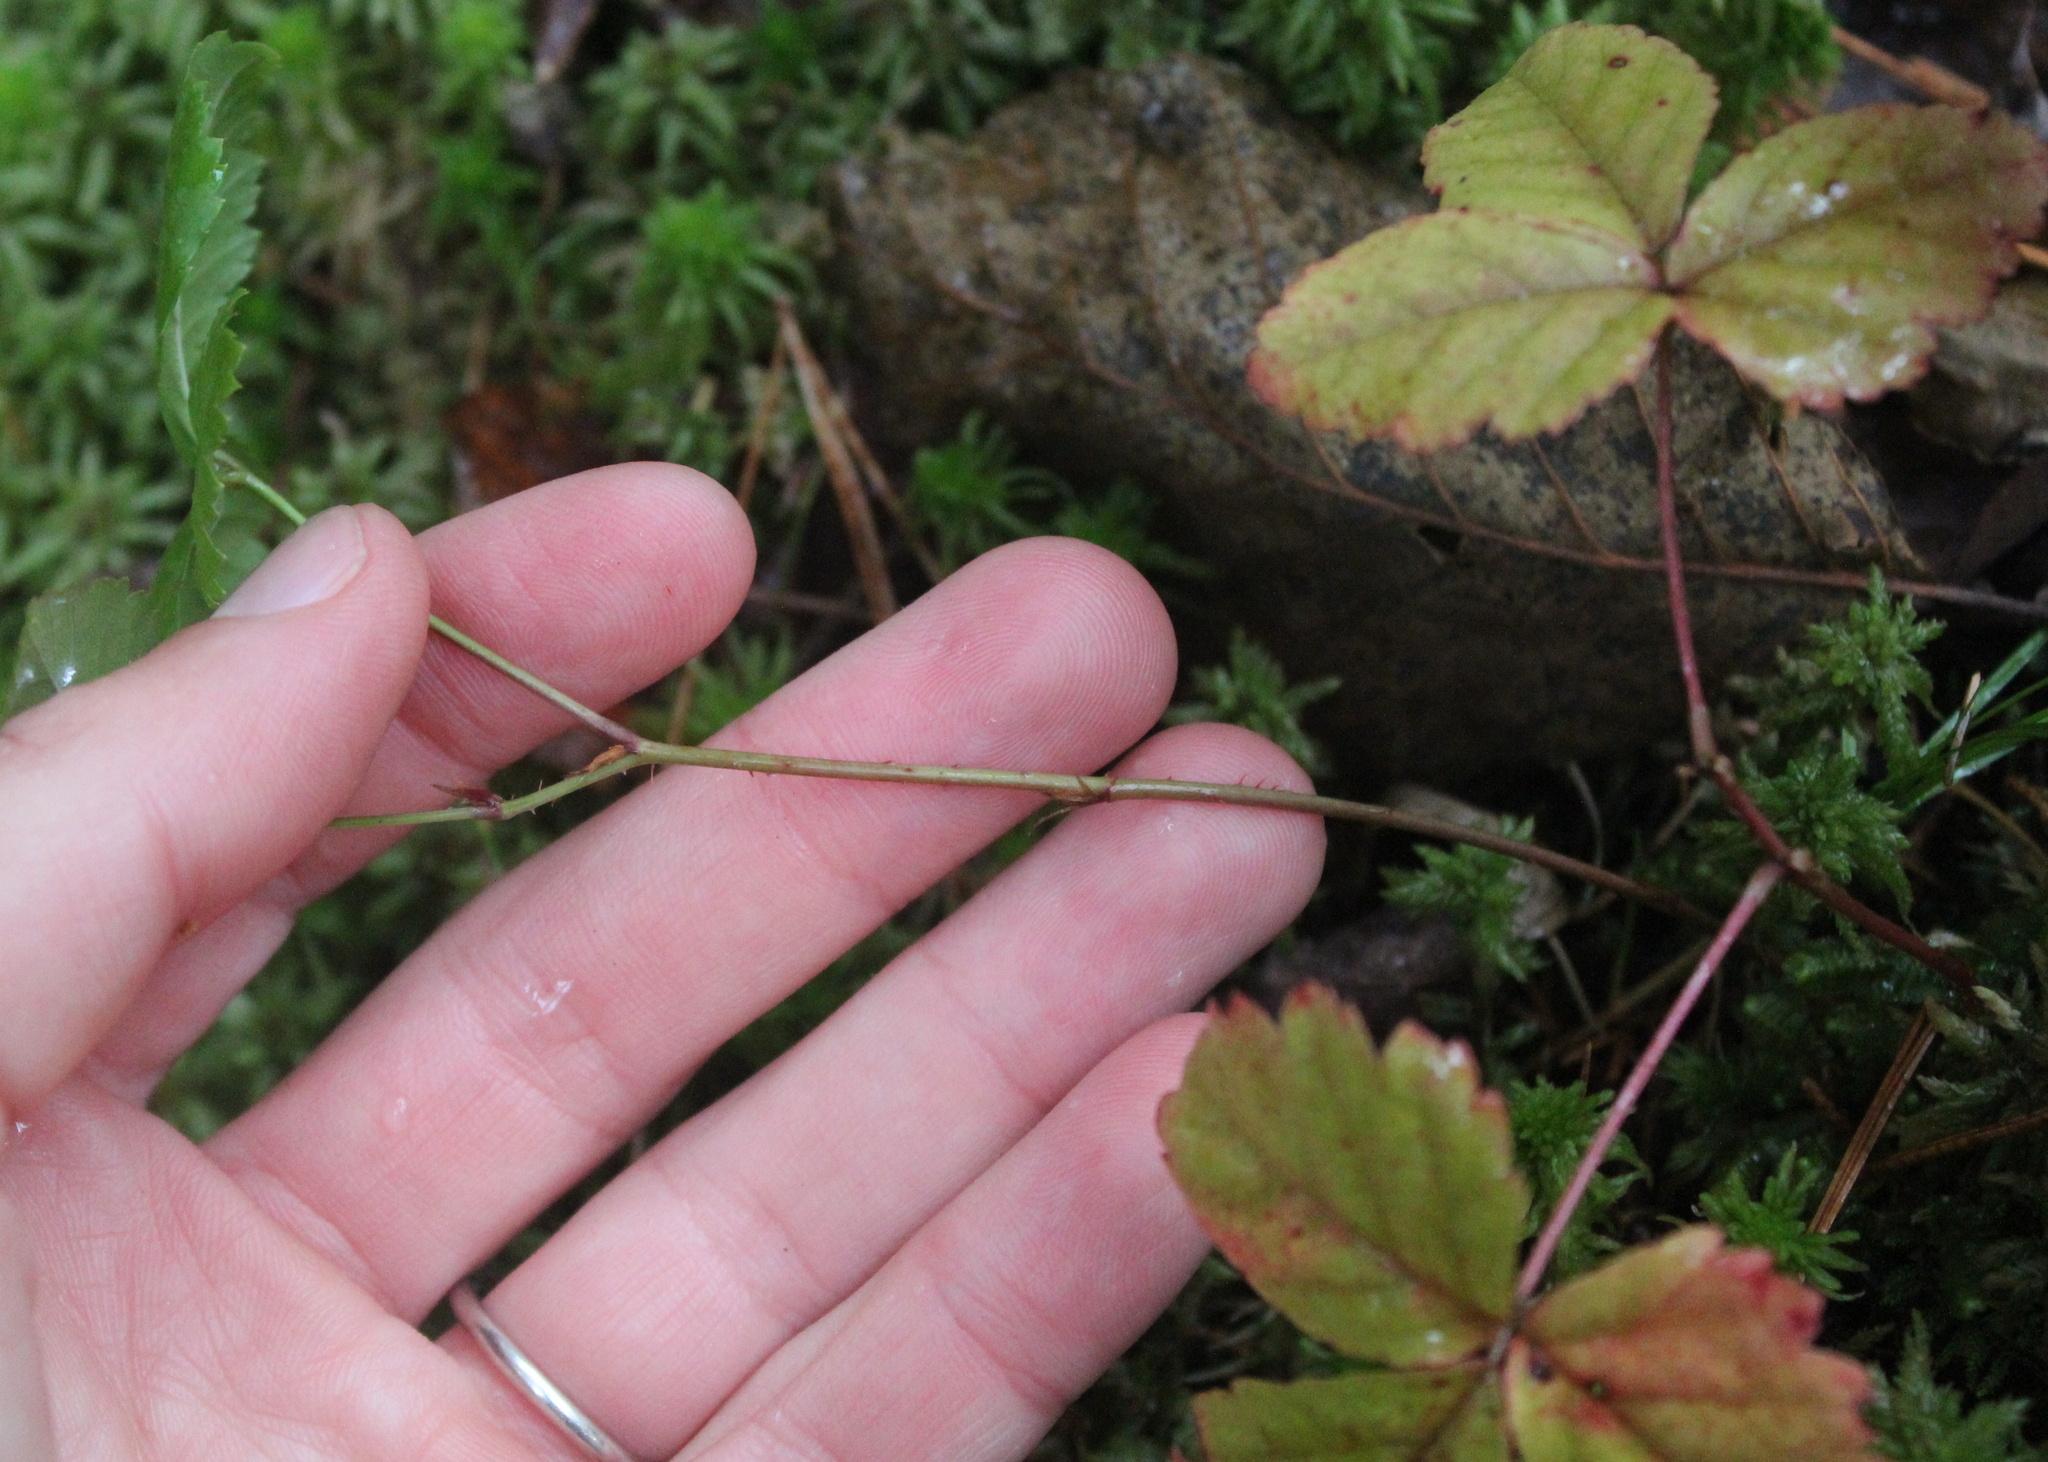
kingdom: Plantae
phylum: Tracheophyta
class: Magnoliopsida
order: Rosales
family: Rosaceae
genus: Rubus
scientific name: Rubus hispidus
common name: Running blackberry
